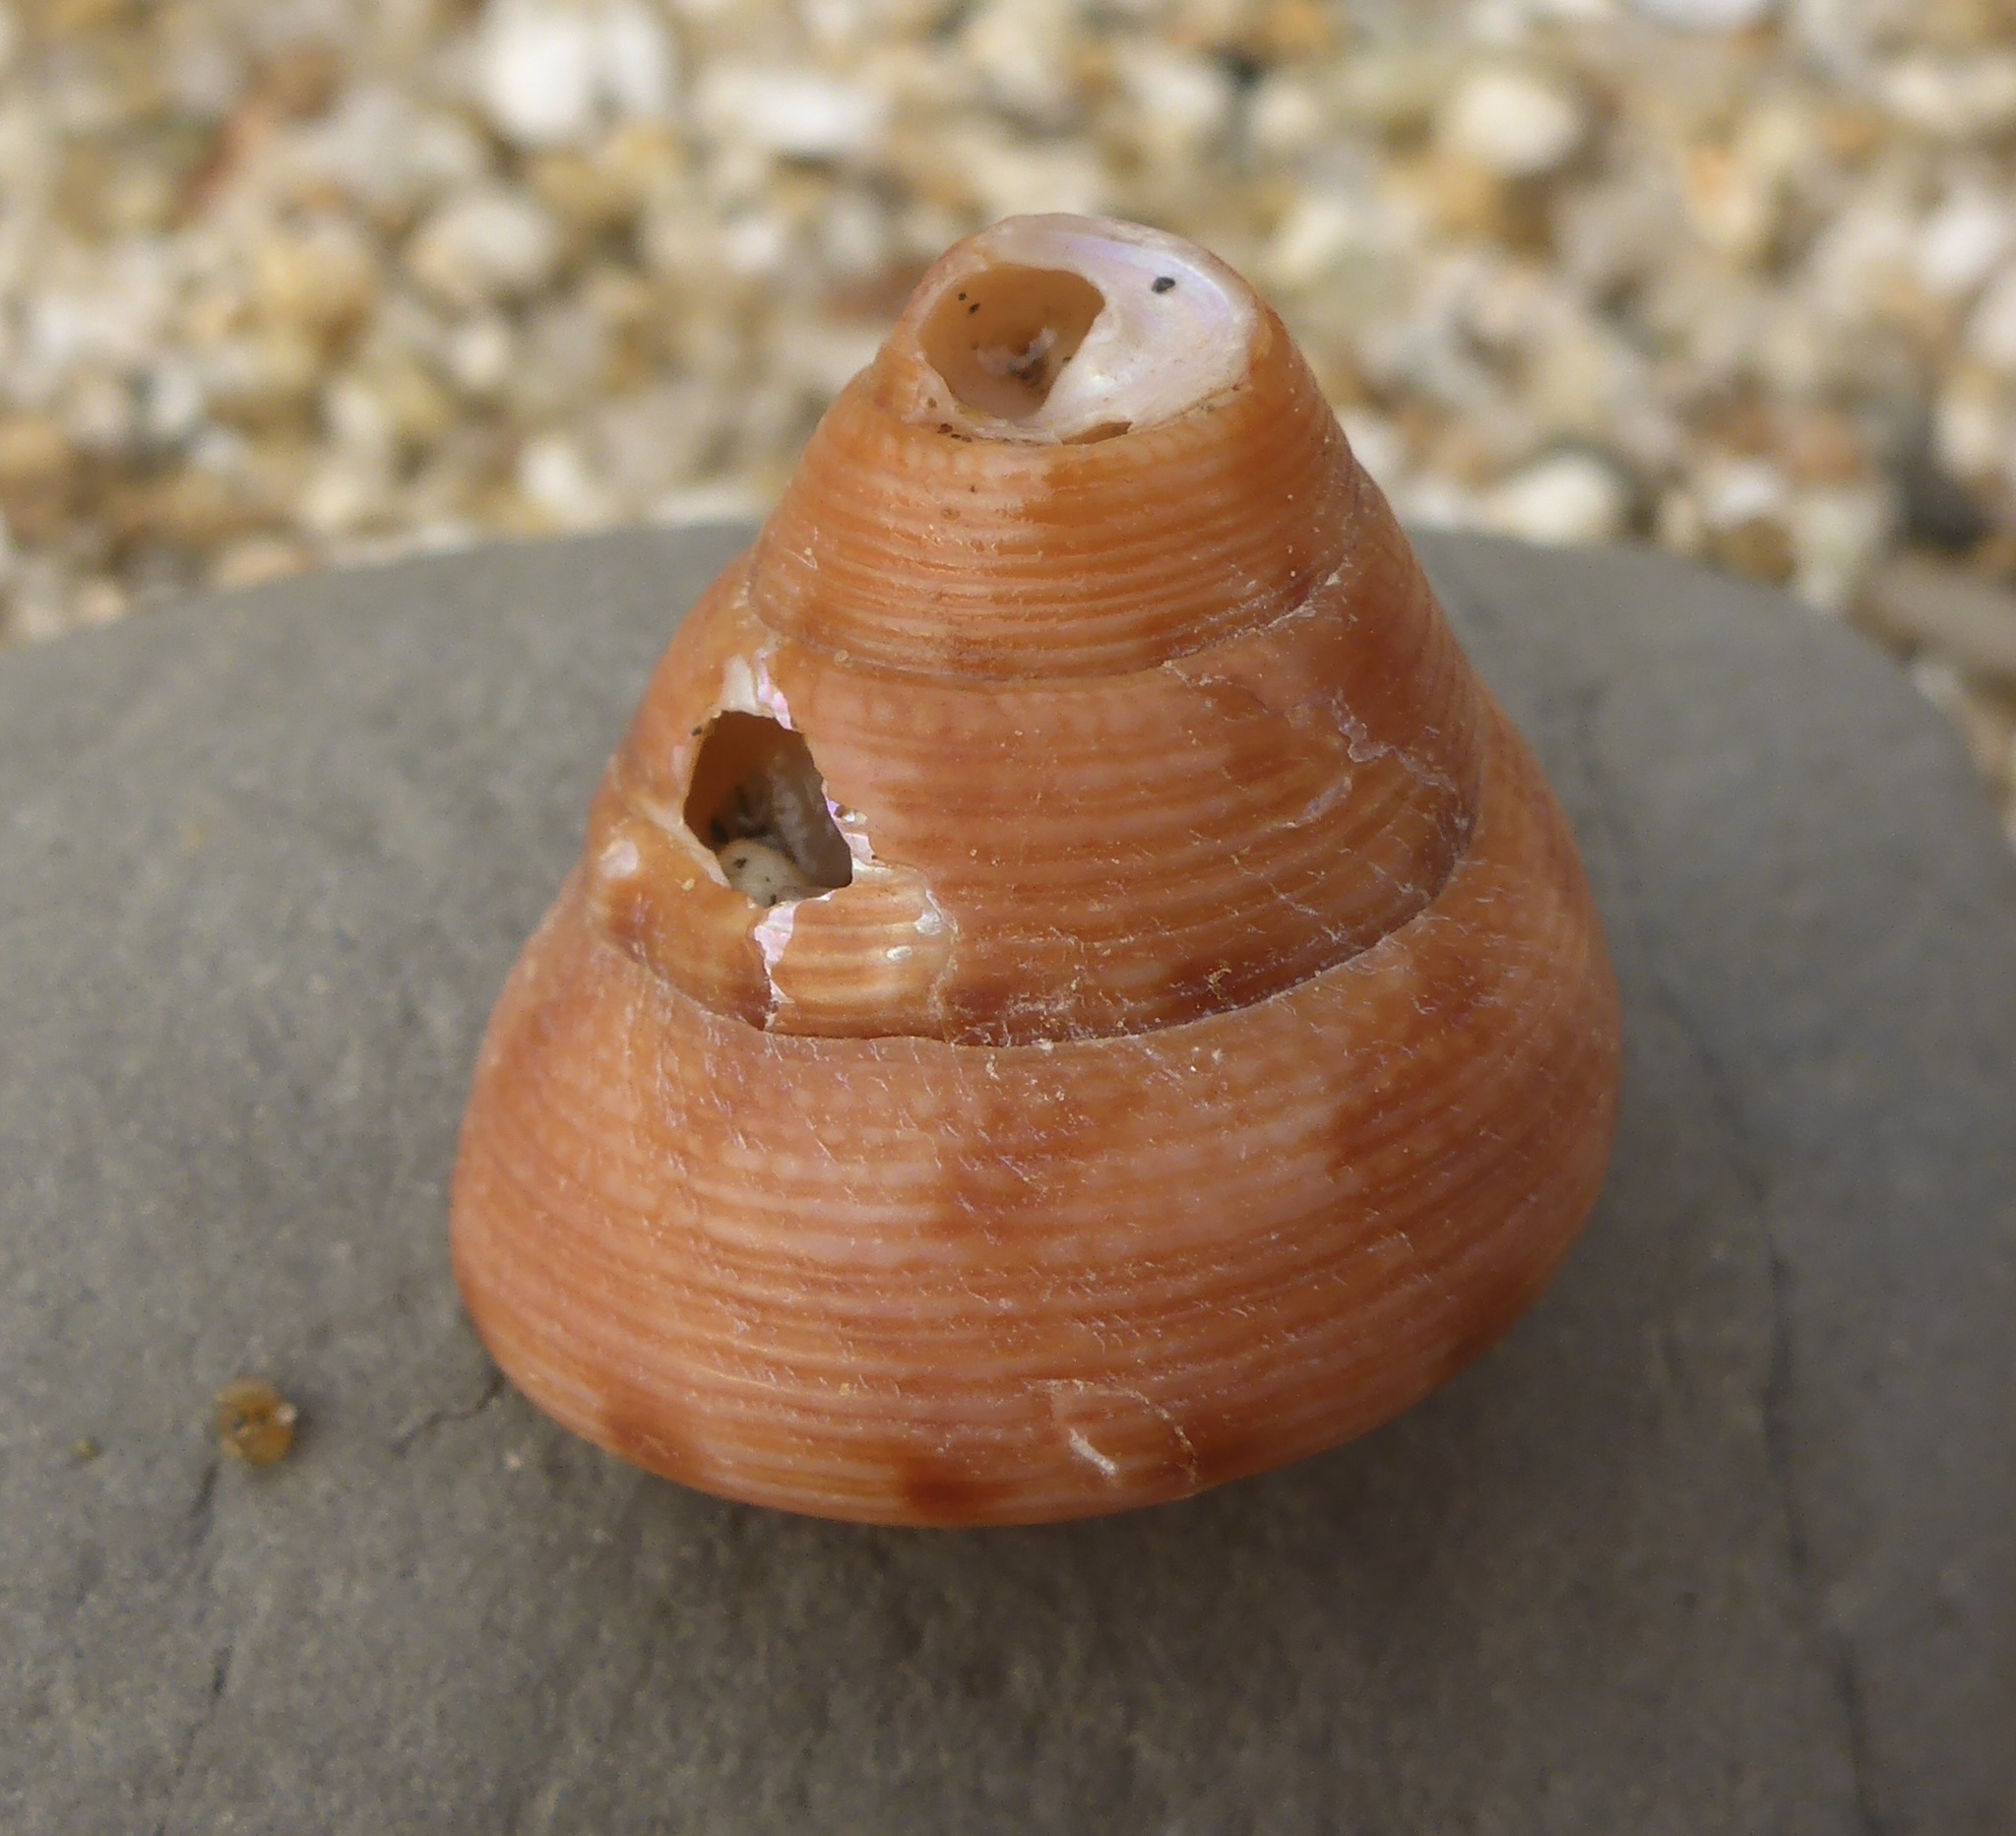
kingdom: Animalia
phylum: Mollusca
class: Gastropoda
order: Trochida
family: Calliostomatidae
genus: Calliostoma
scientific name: Calliostoma gloriosum
